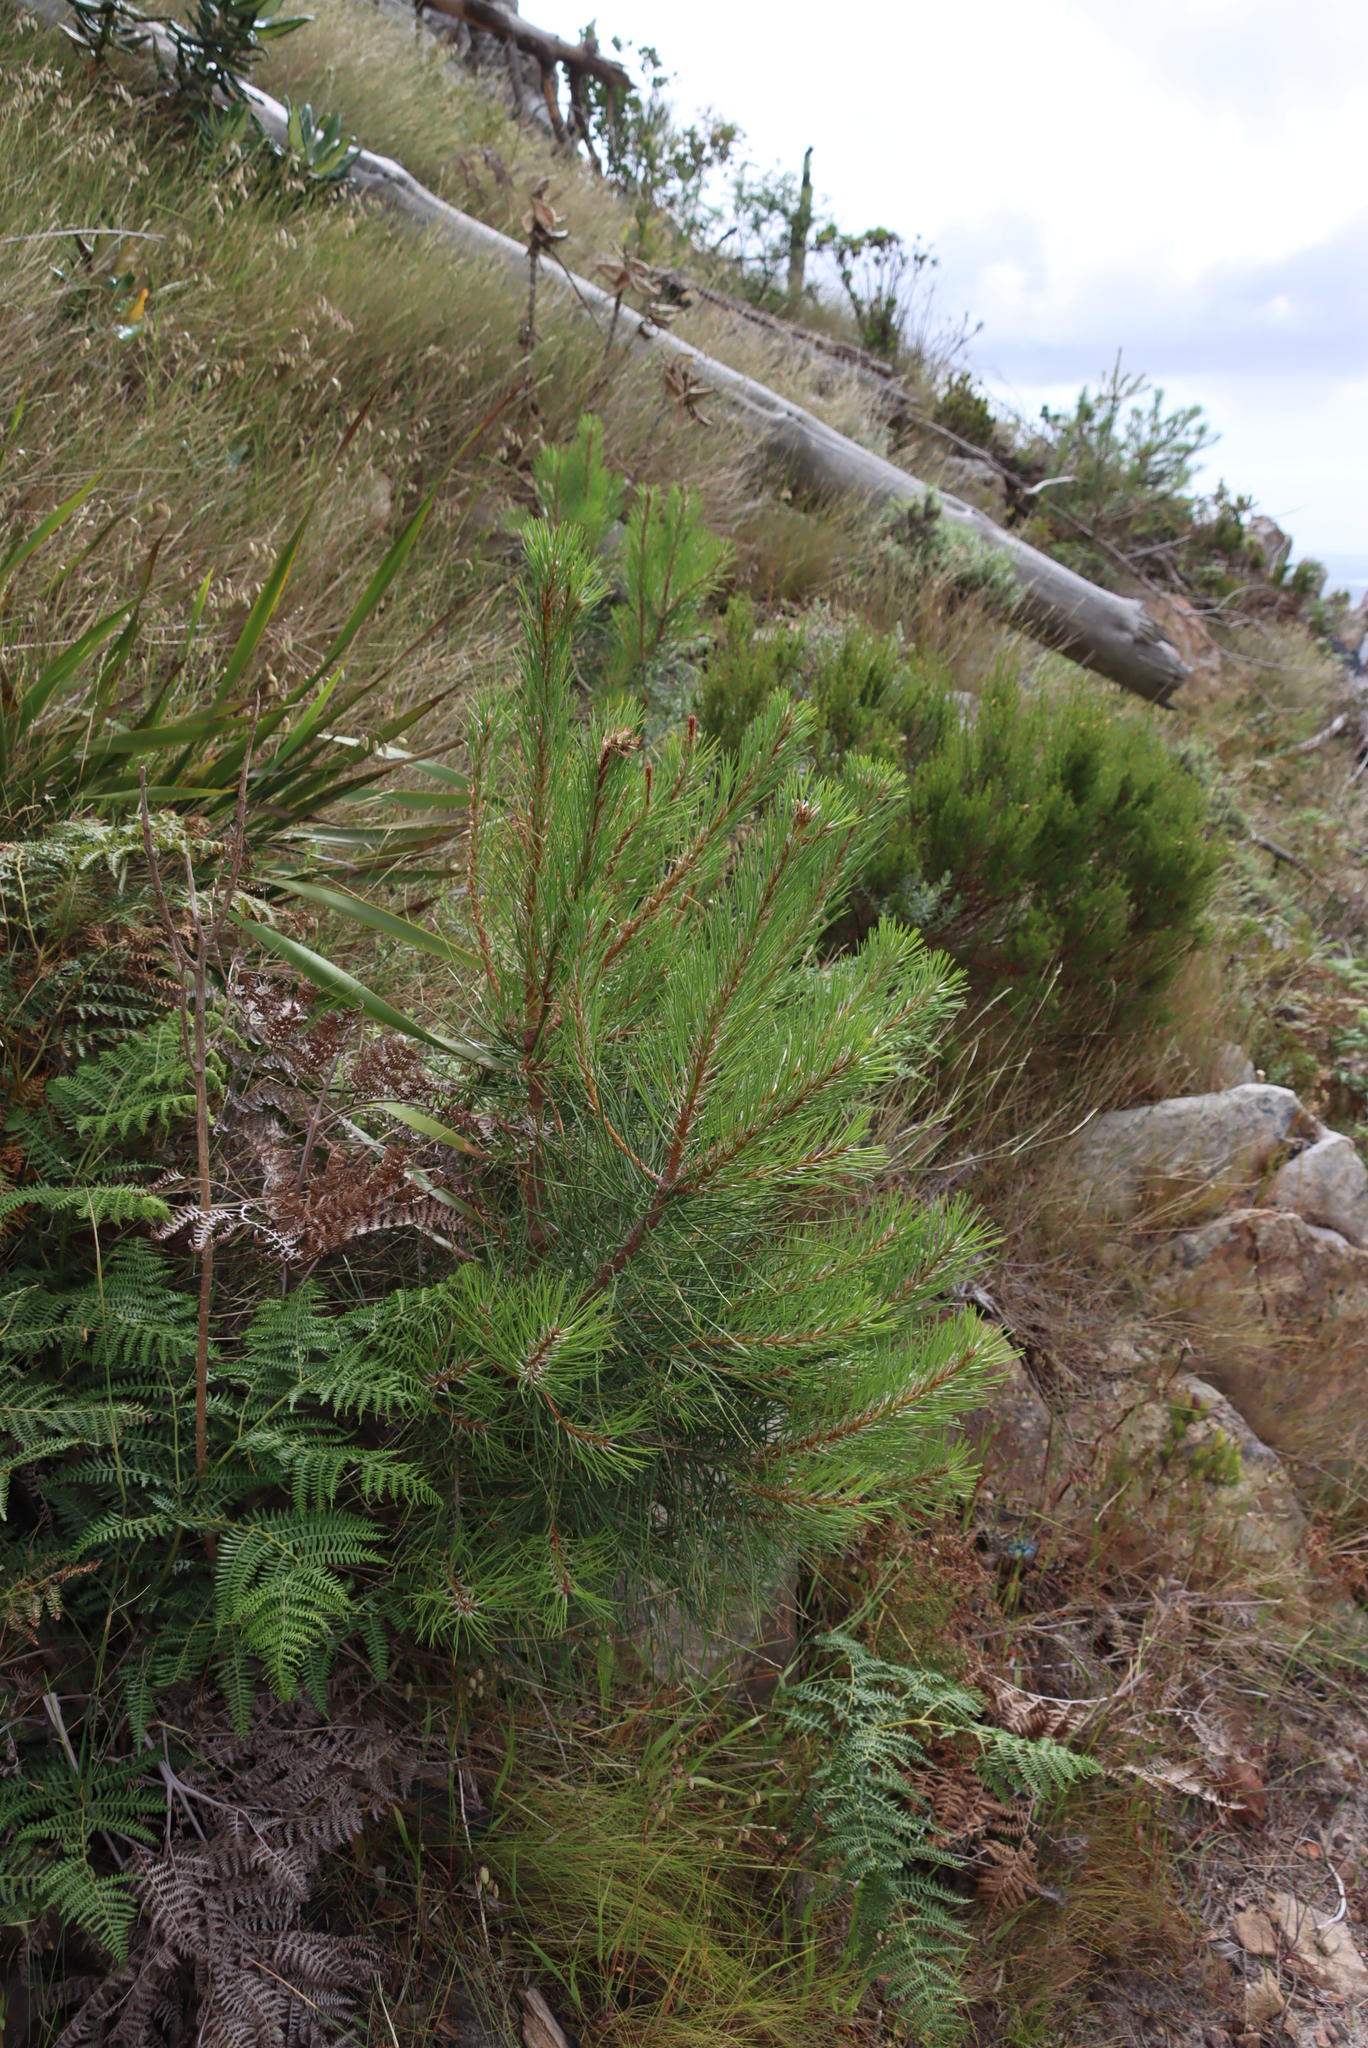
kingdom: Plantae
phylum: Tracheophyta
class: Pinopsida
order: Pinales
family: Pinaceae
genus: Pinus
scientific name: Pinus radiata
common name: Monterey pine
